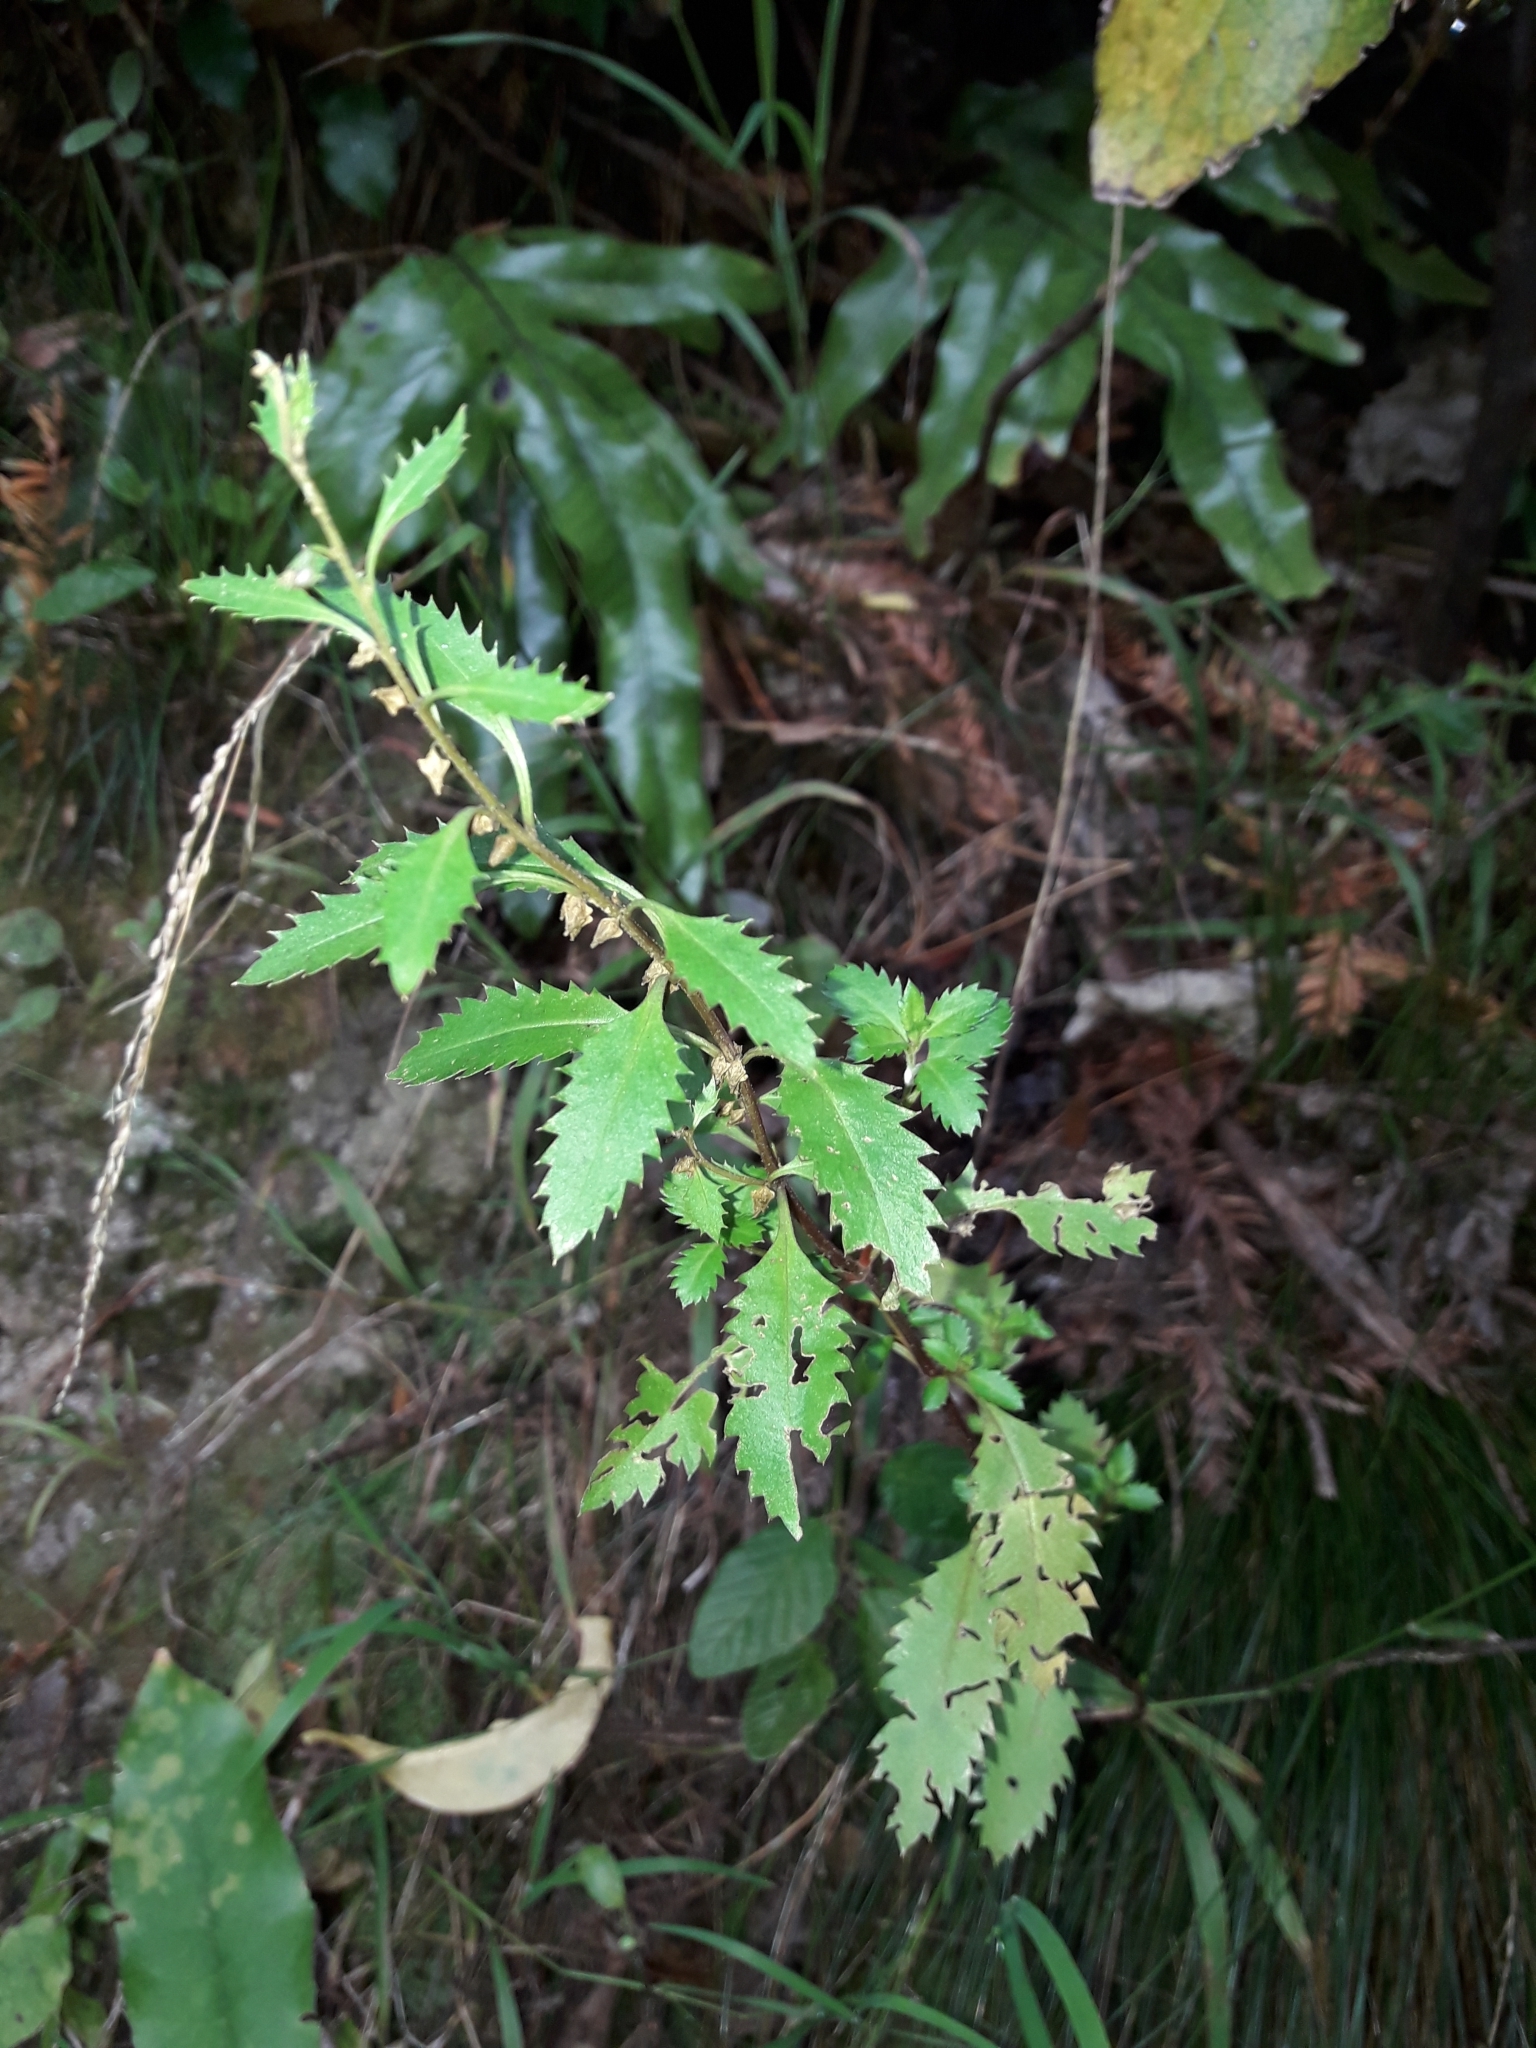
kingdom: Plantae
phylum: Tracheophyta
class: Magnoliopsida
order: Saxifragales
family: Haloragaceae
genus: Haloragis
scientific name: Haloragis erecta
